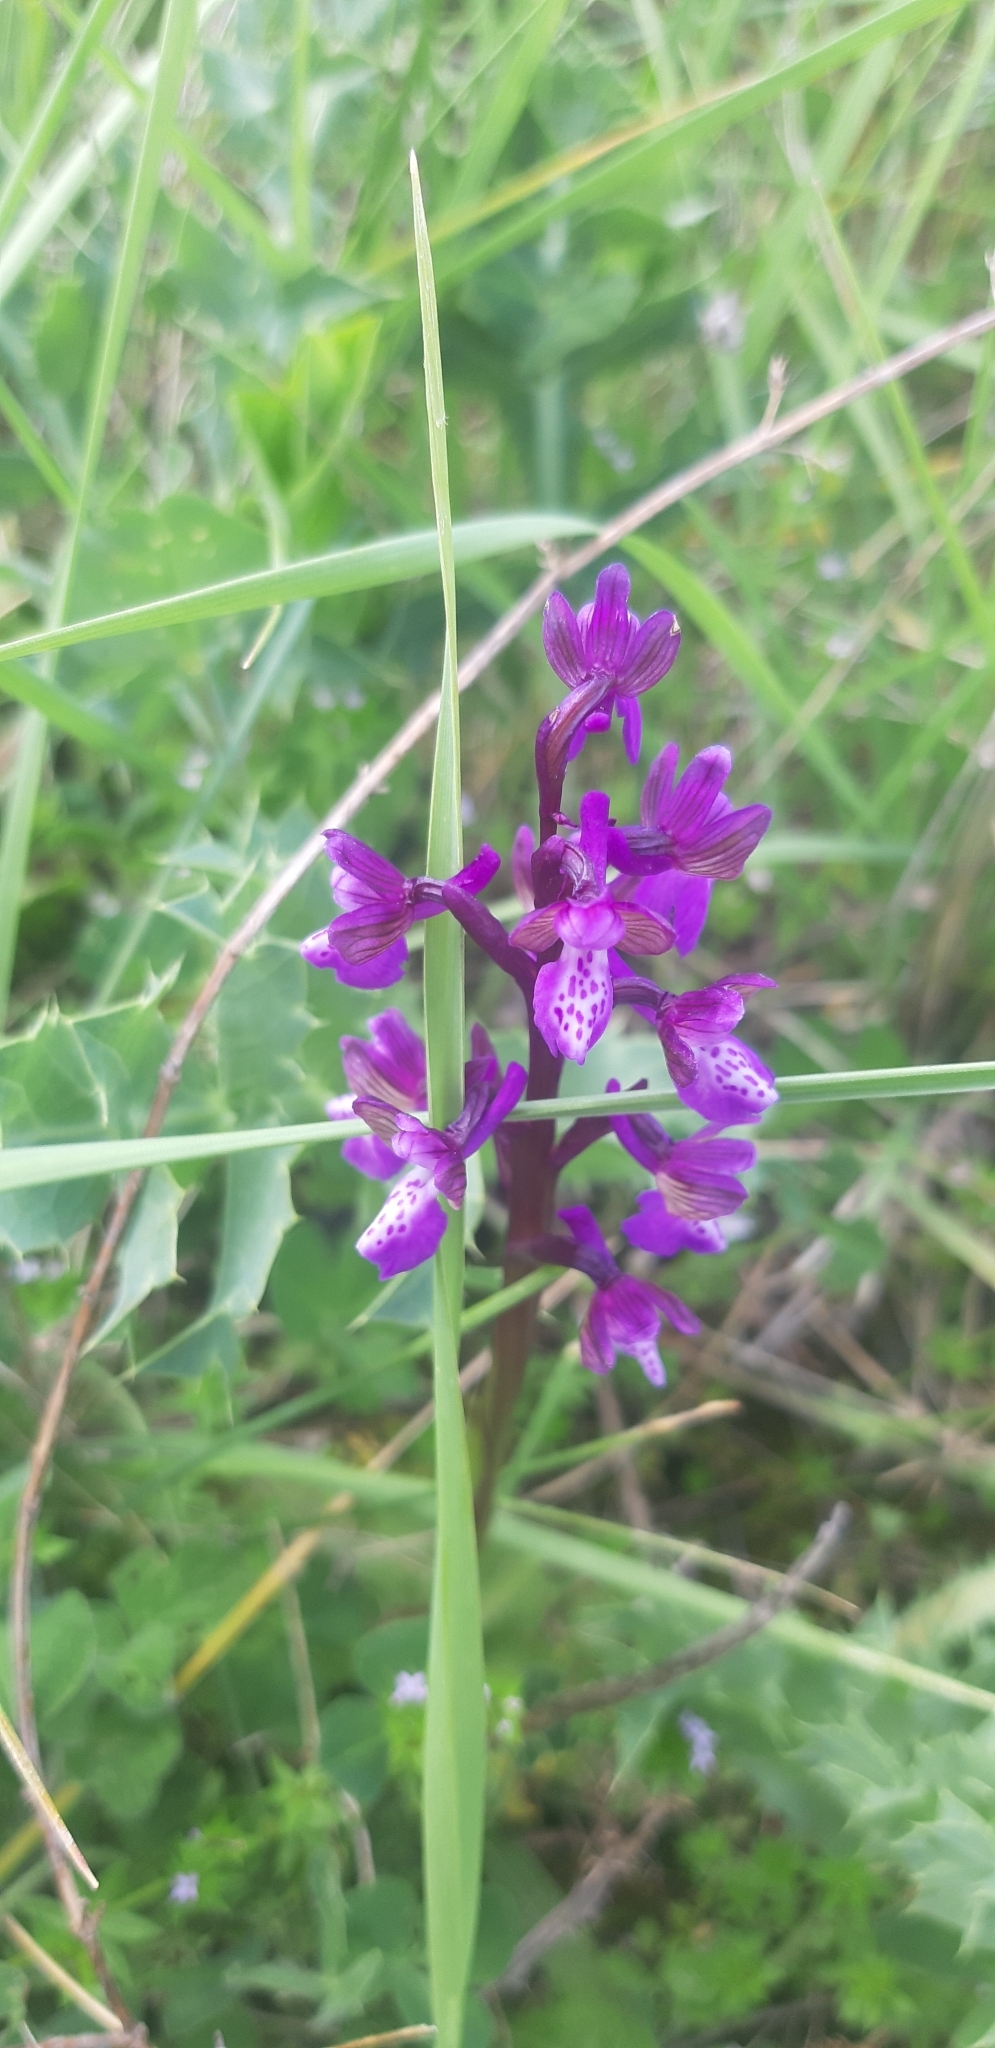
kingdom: Plantae
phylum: Tracheophyta
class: Liliopsida
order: Asparagales
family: Orchidaceae
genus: Anacamptis
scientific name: Anacamptis morio
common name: Green-winged orchid
